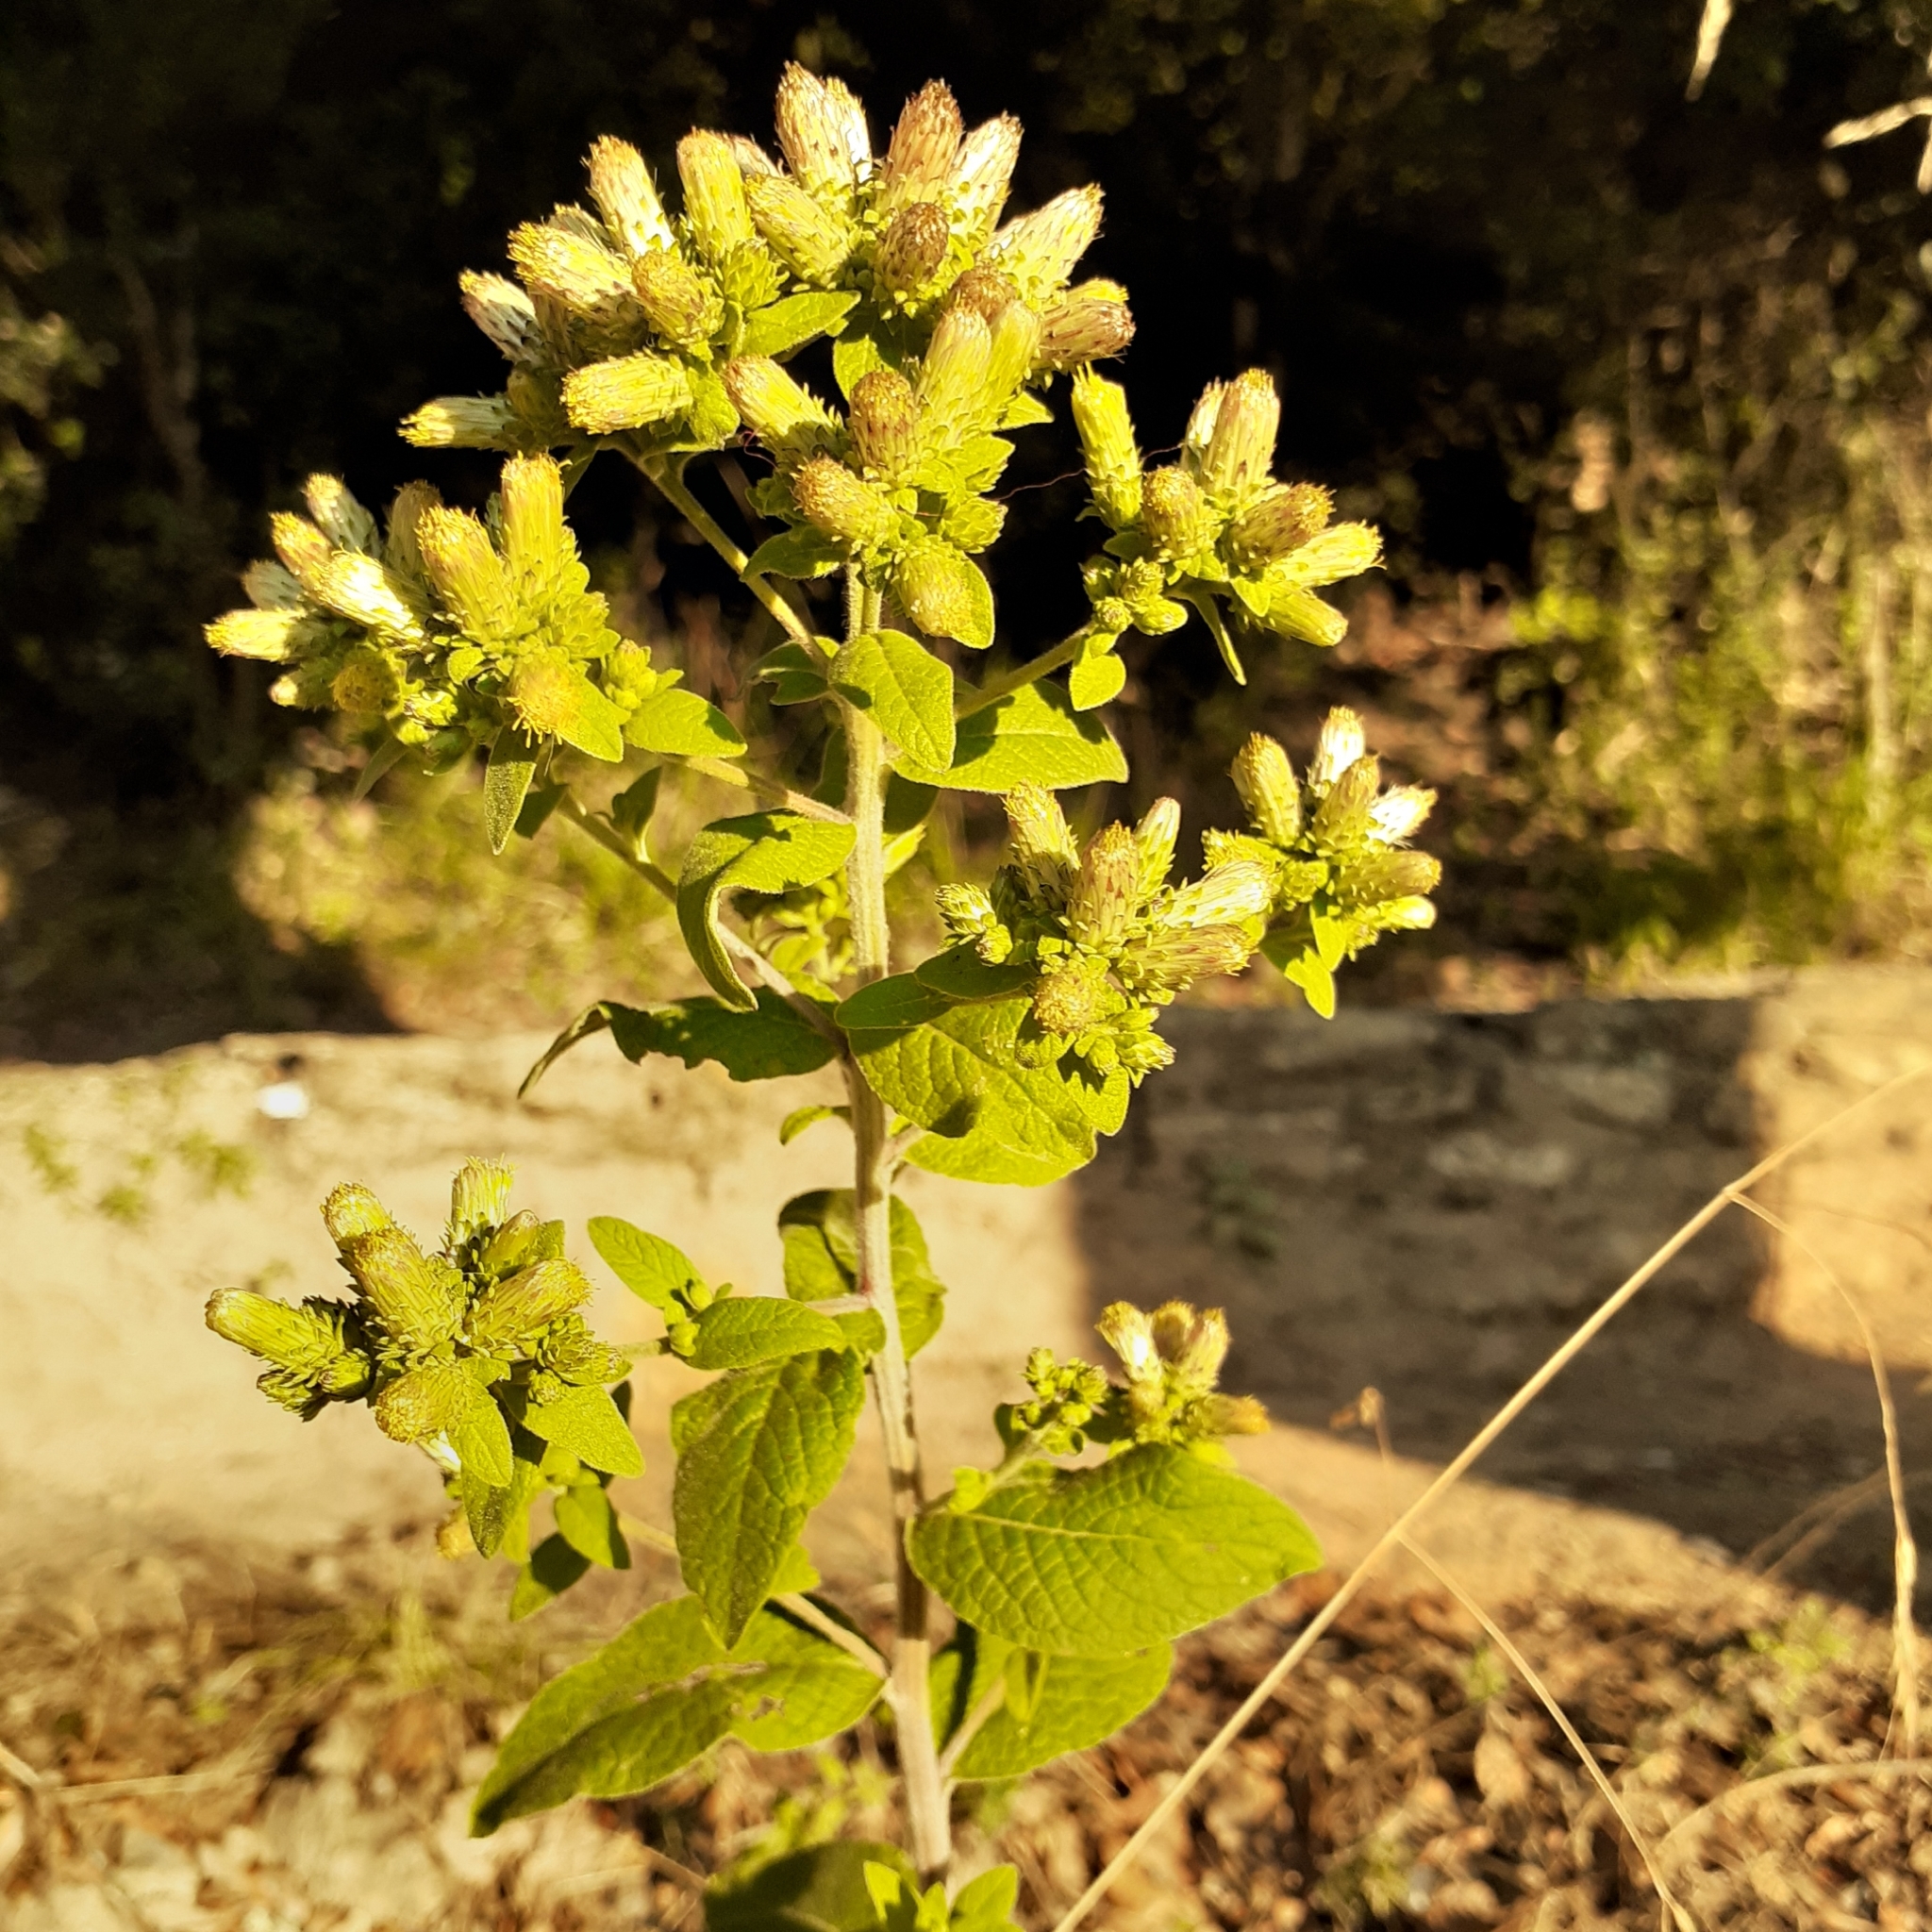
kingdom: Plantae
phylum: Tracheophyta
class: Magnoliopsida
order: Asterales
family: Asteraceae
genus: Pentanema
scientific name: Pentanema squarrosum
